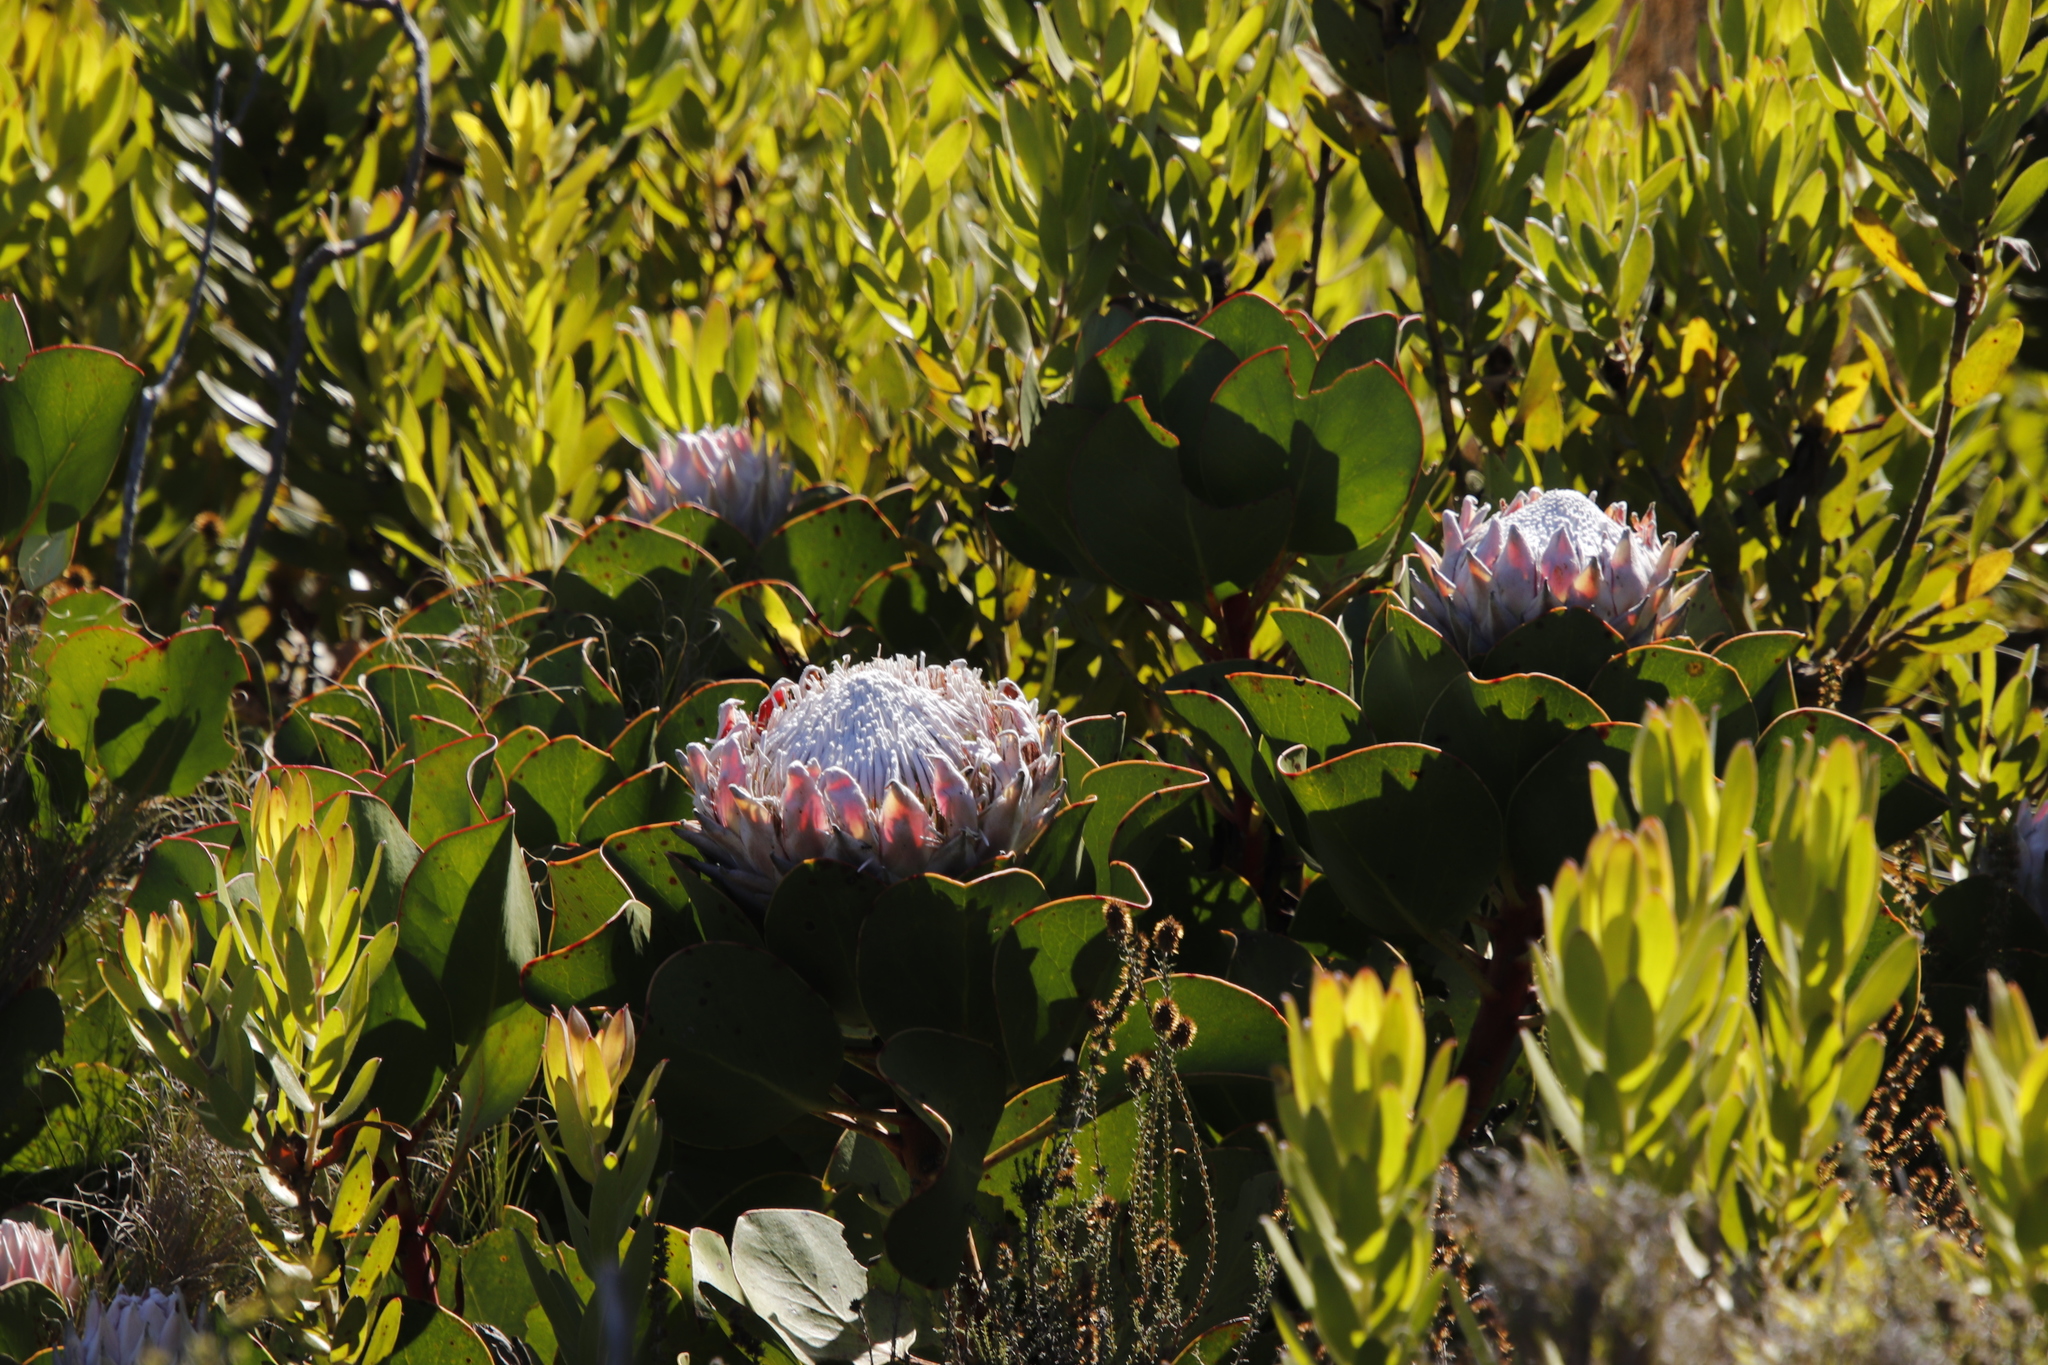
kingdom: Plantae
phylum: Tracheophyta
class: Magnoliopsida
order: Proteales
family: Proteaceae
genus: Protea
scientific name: Protea cynaroides
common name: King protea
